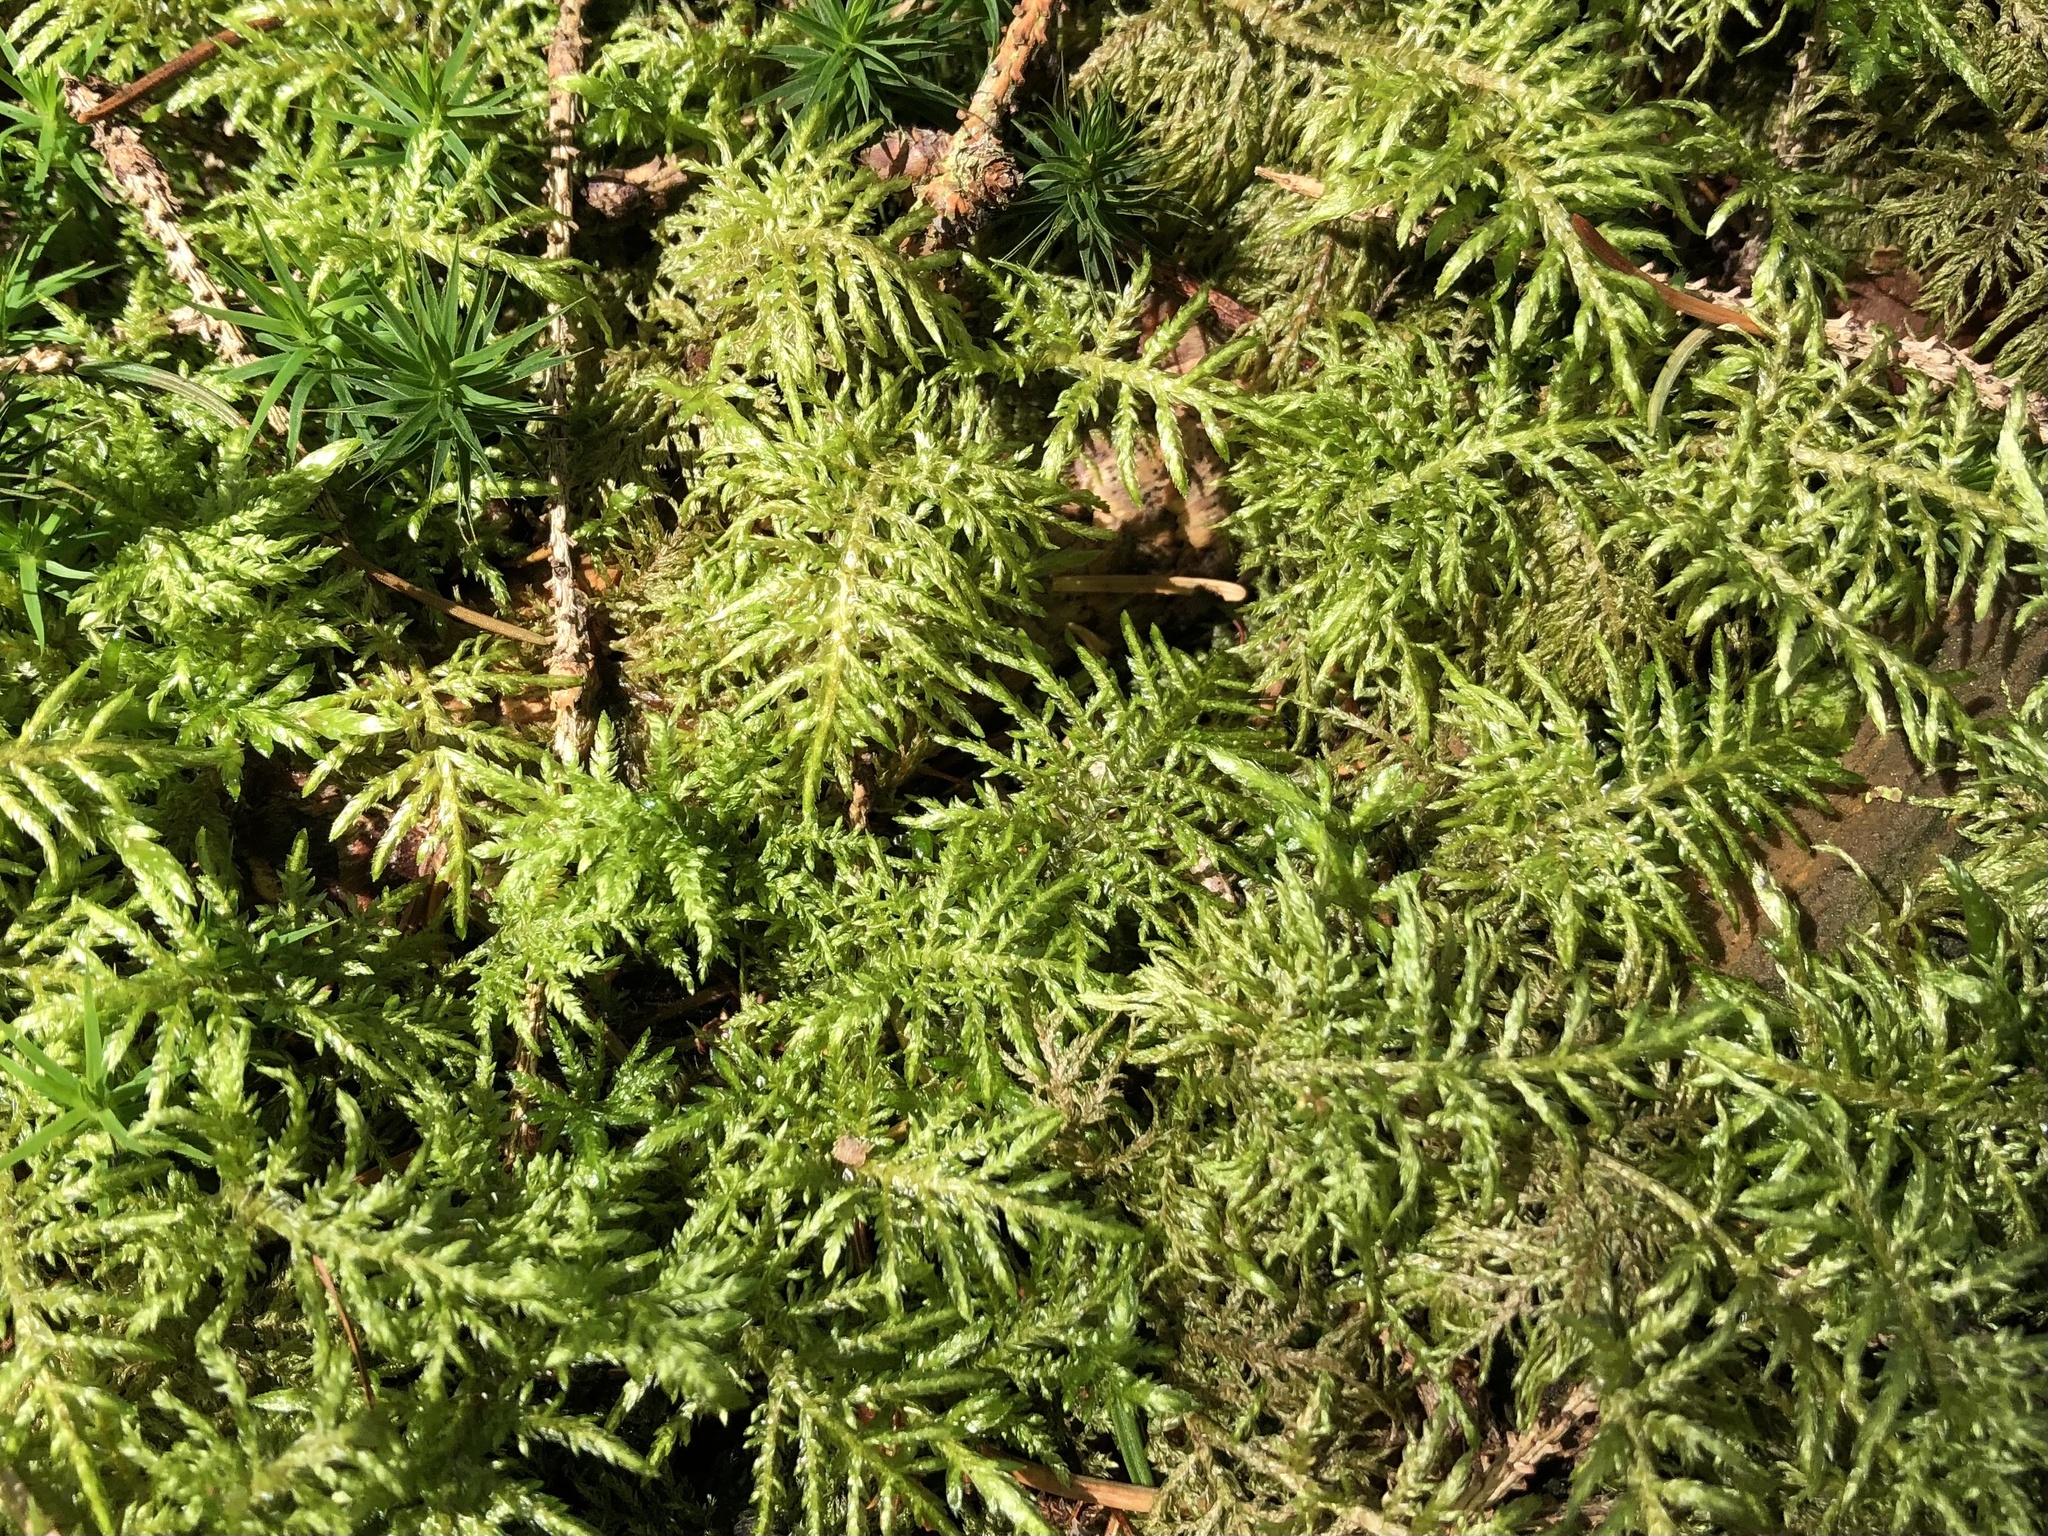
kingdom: Plantae
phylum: Bryophyta
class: Bryopsida
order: Hypnales
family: Hylocomiaceae
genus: Hylocomium
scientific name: Hylocomium splendens
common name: Stairstep moss
